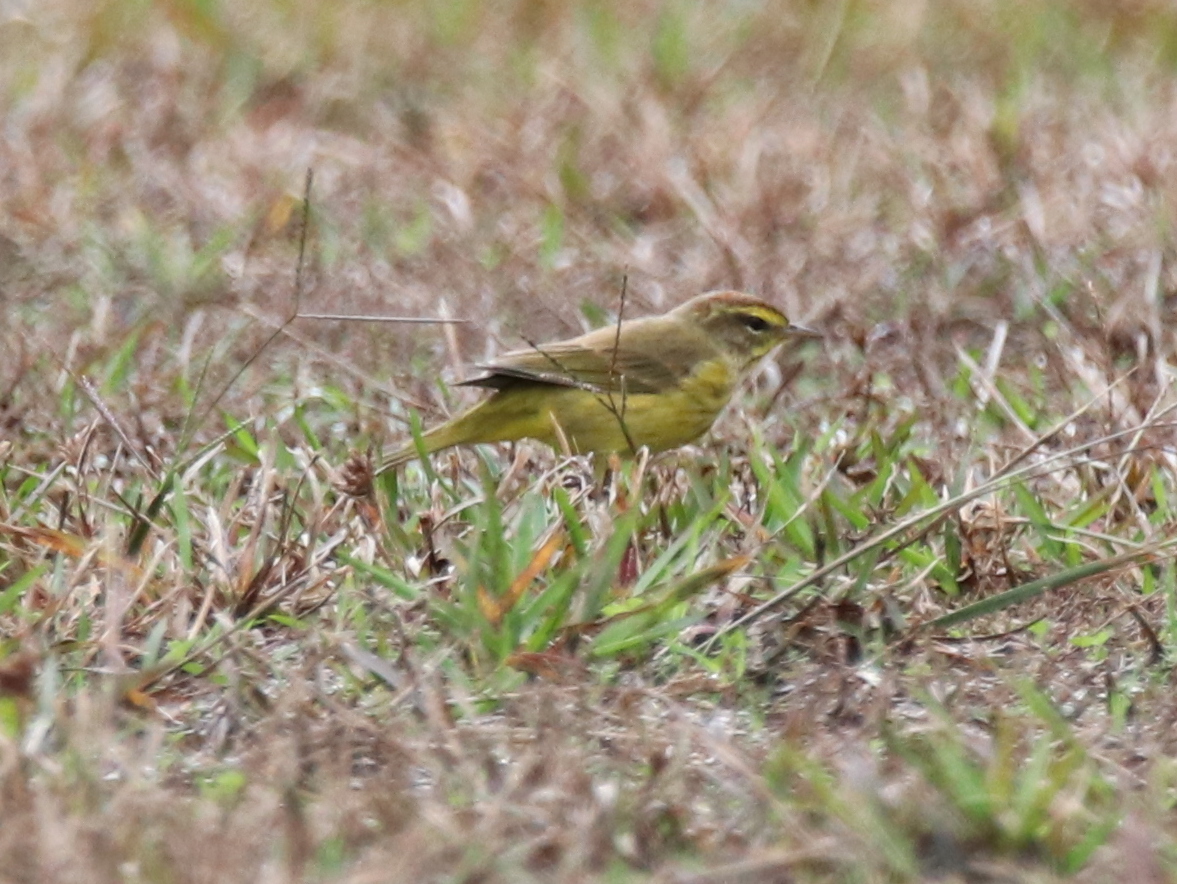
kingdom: Animalia
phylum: Chordata
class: Aves
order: Passeriformes
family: Parulidae
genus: Setophaga
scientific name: Setophaga palmarum
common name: Palm warbler
